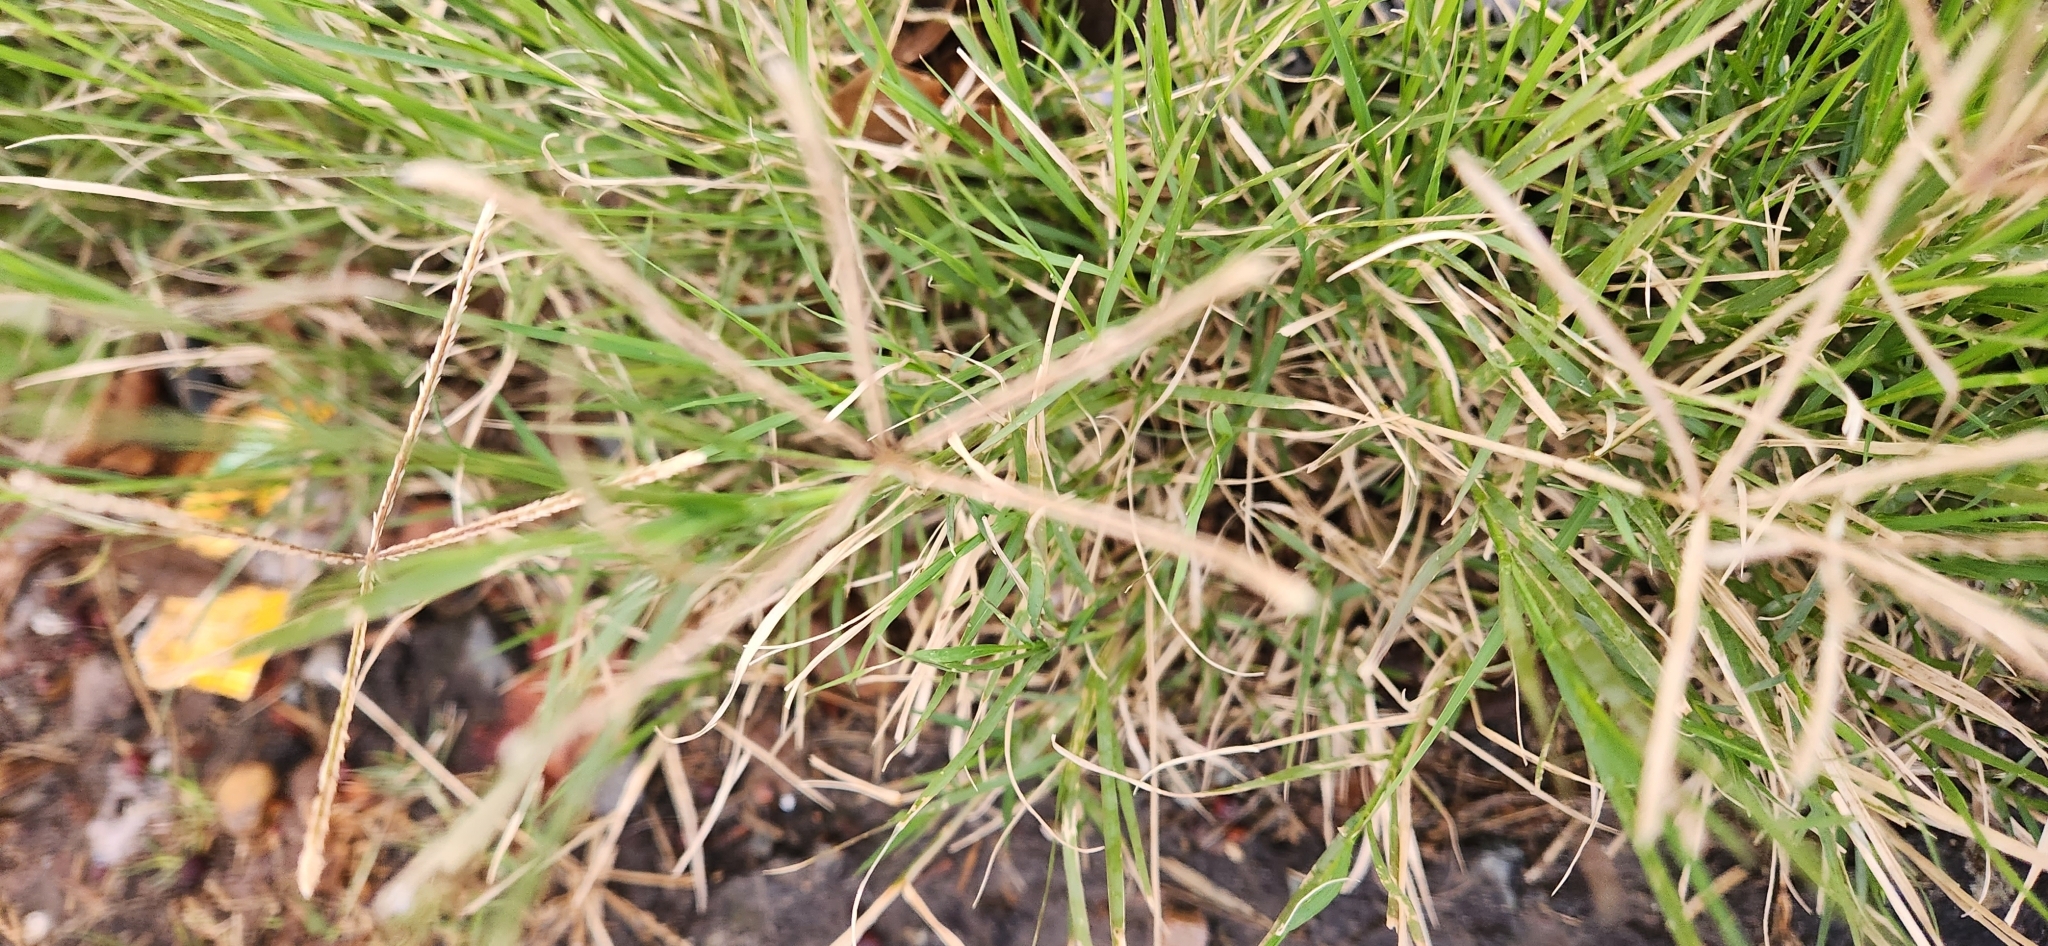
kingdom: Plantae
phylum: Tracheophyta
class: Liliopsida
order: Poales
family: Poaceae
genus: Cynodon
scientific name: Cynodon dactylon
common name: Bermuda grass
